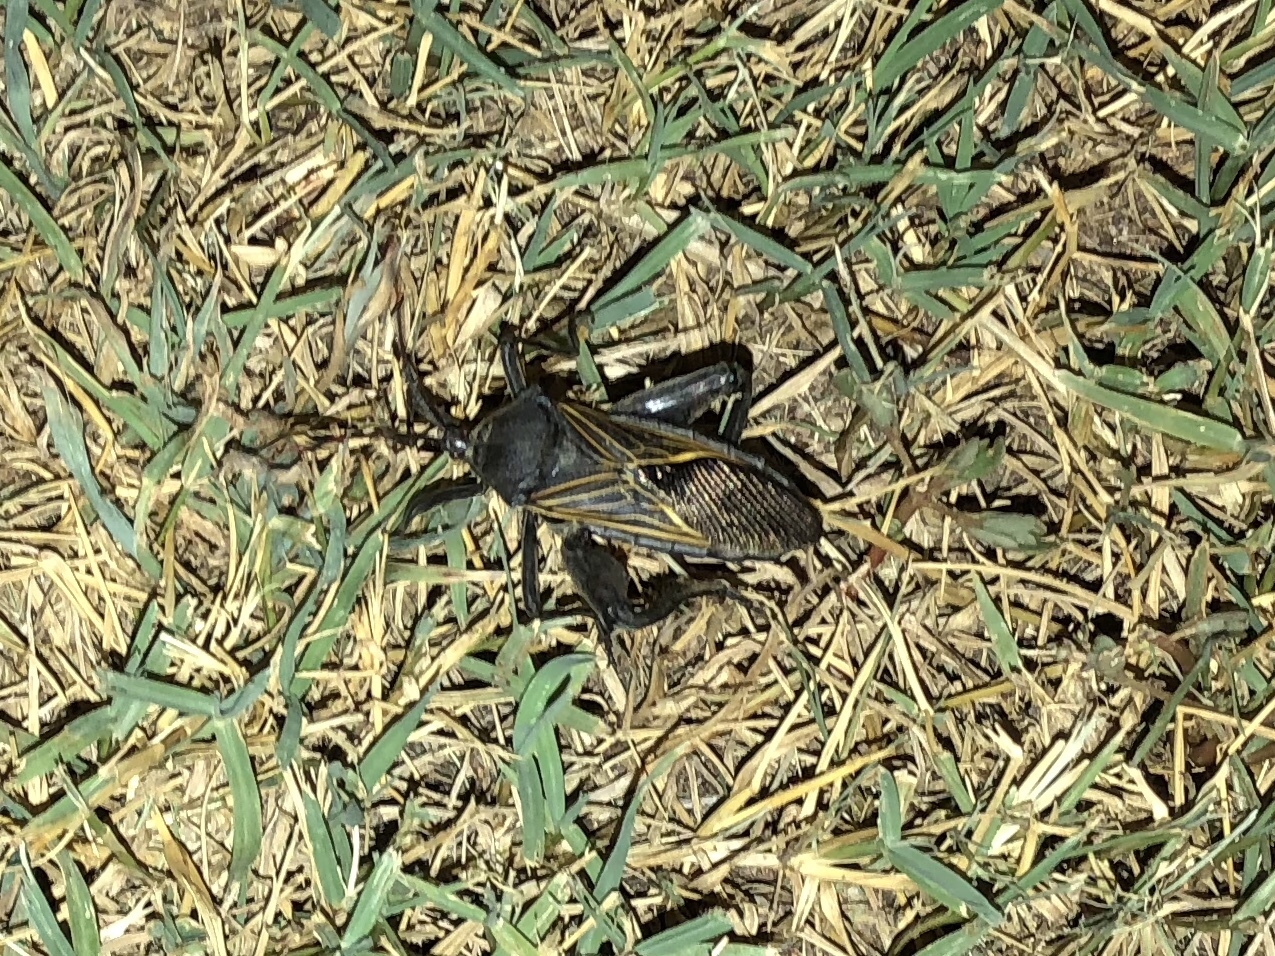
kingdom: Animalia
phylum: Arthropoda
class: Insecta
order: Hemiptera
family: Coreidae
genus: Thasus
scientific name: Thasus neocalifornicus
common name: Giant mesquite bug
